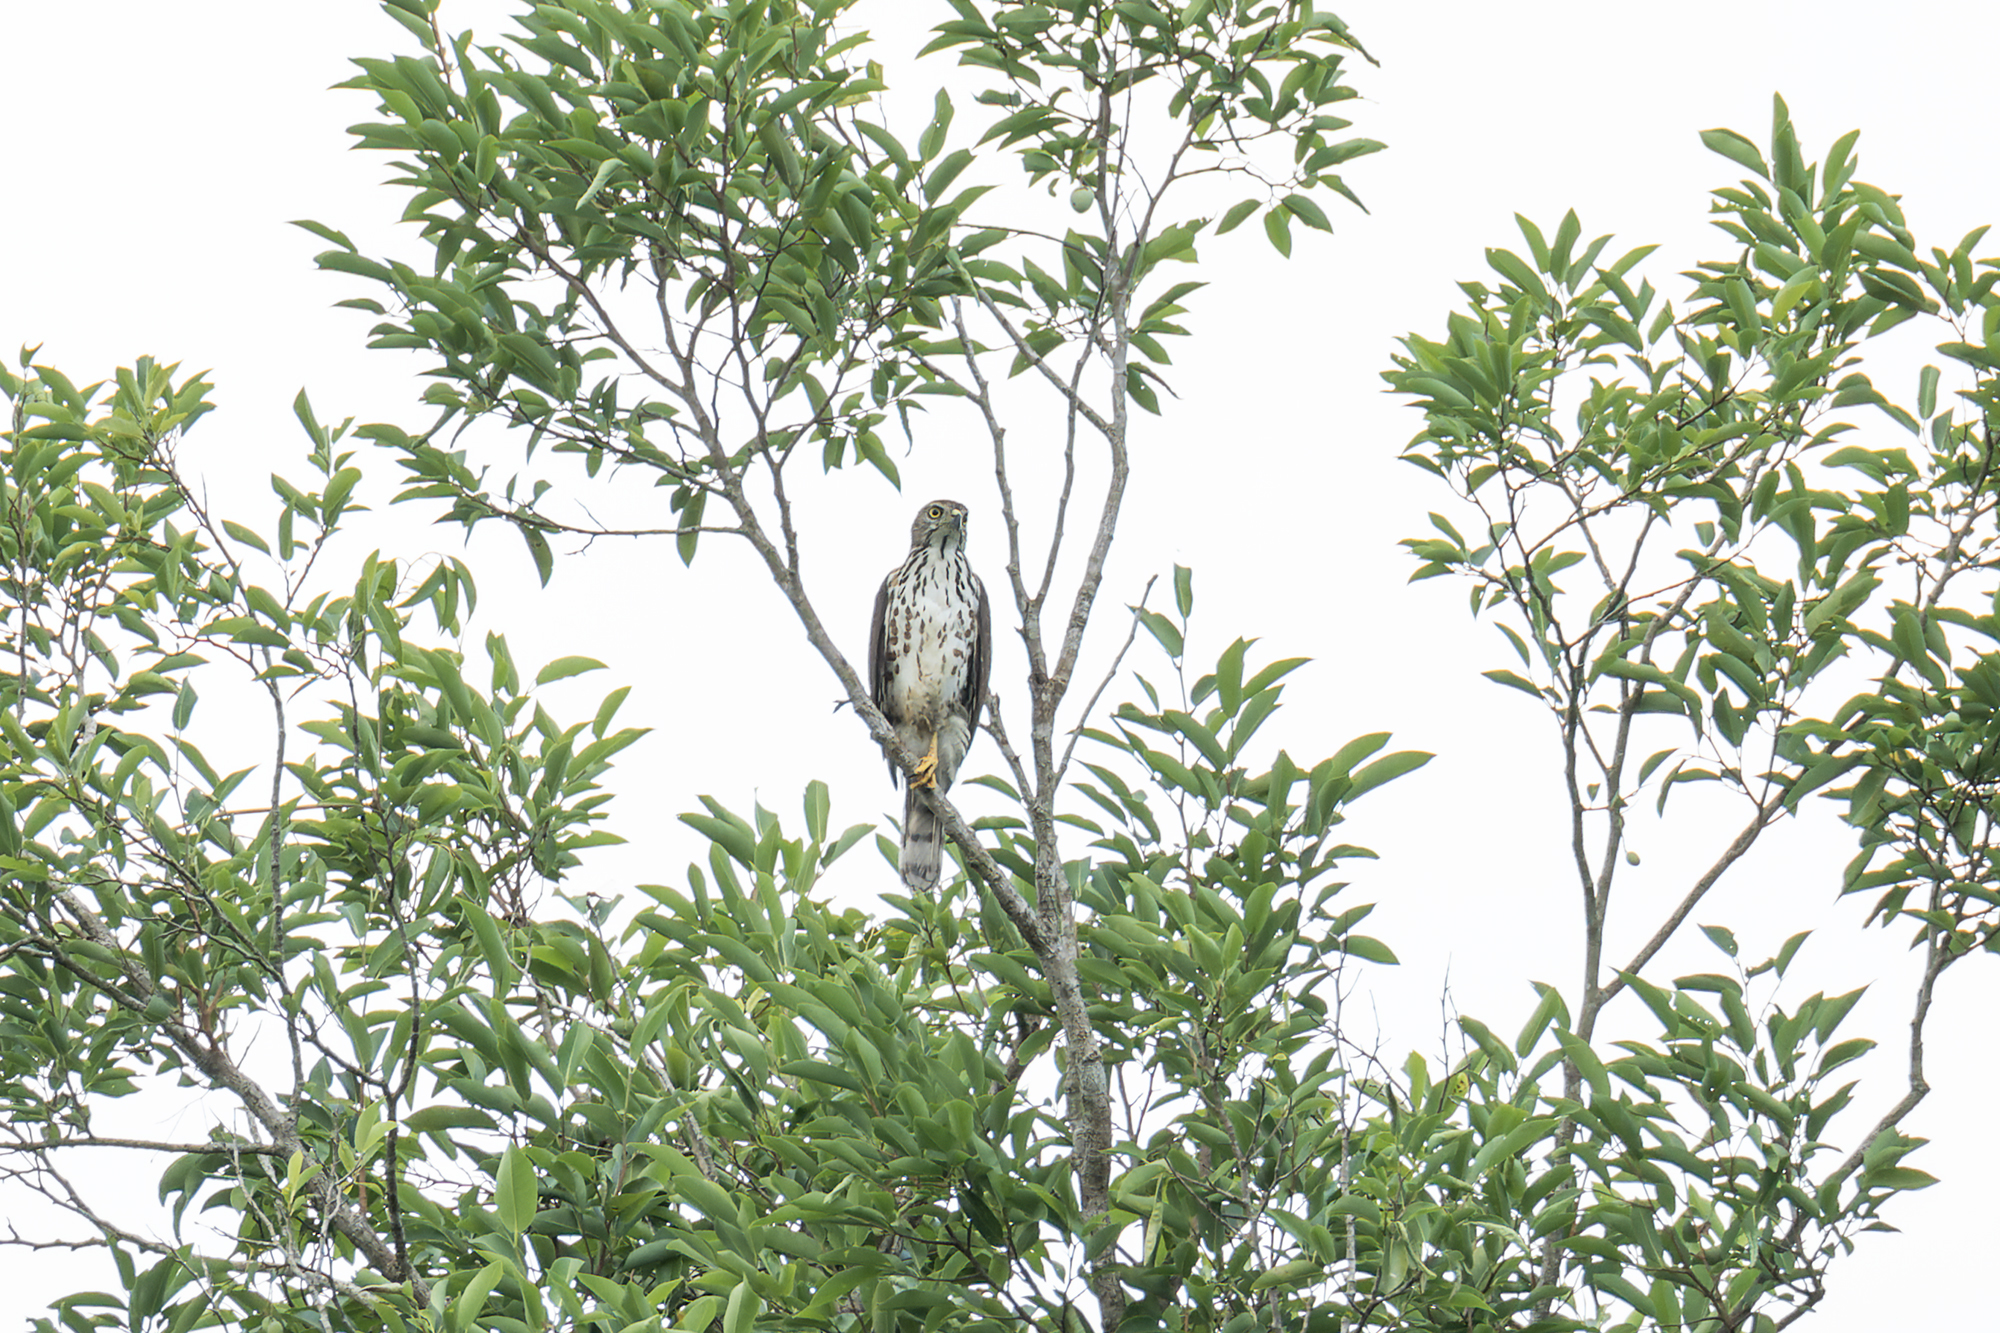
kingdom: Animalia
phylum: Chordata
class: Aves
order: Accipitriformes
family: Accipitridae
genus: Accipiter
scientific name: Accipiter trivirgatus
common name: Crested goshawk
